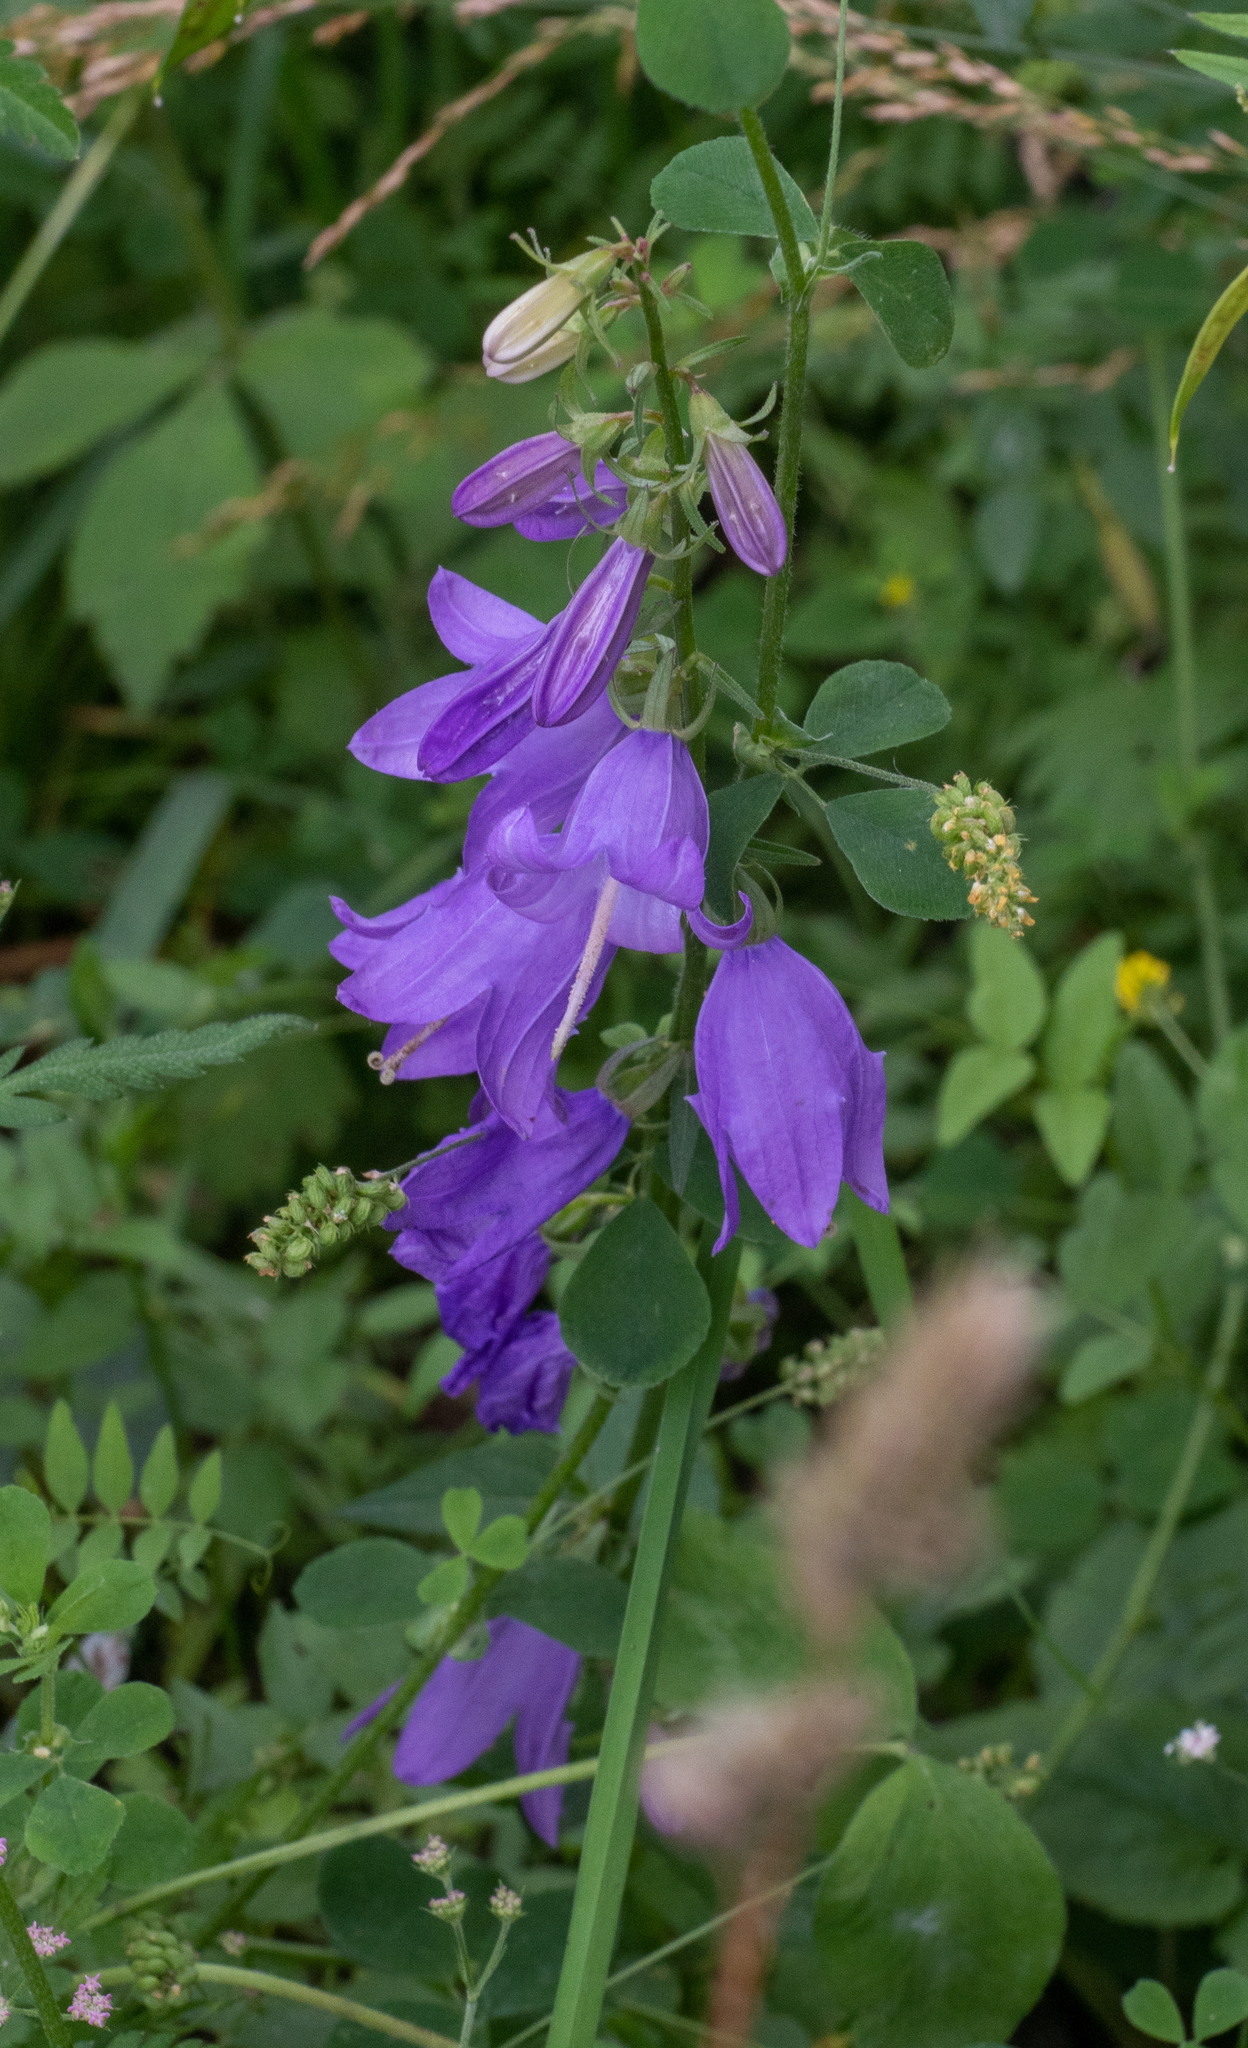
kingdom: Plantae
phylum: Tracheophyta
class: Magnoliopsida
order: Asterales
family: Campanulaceae
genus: Campanula
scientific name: Campanula rapunculoides
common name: Creeping bellflower
